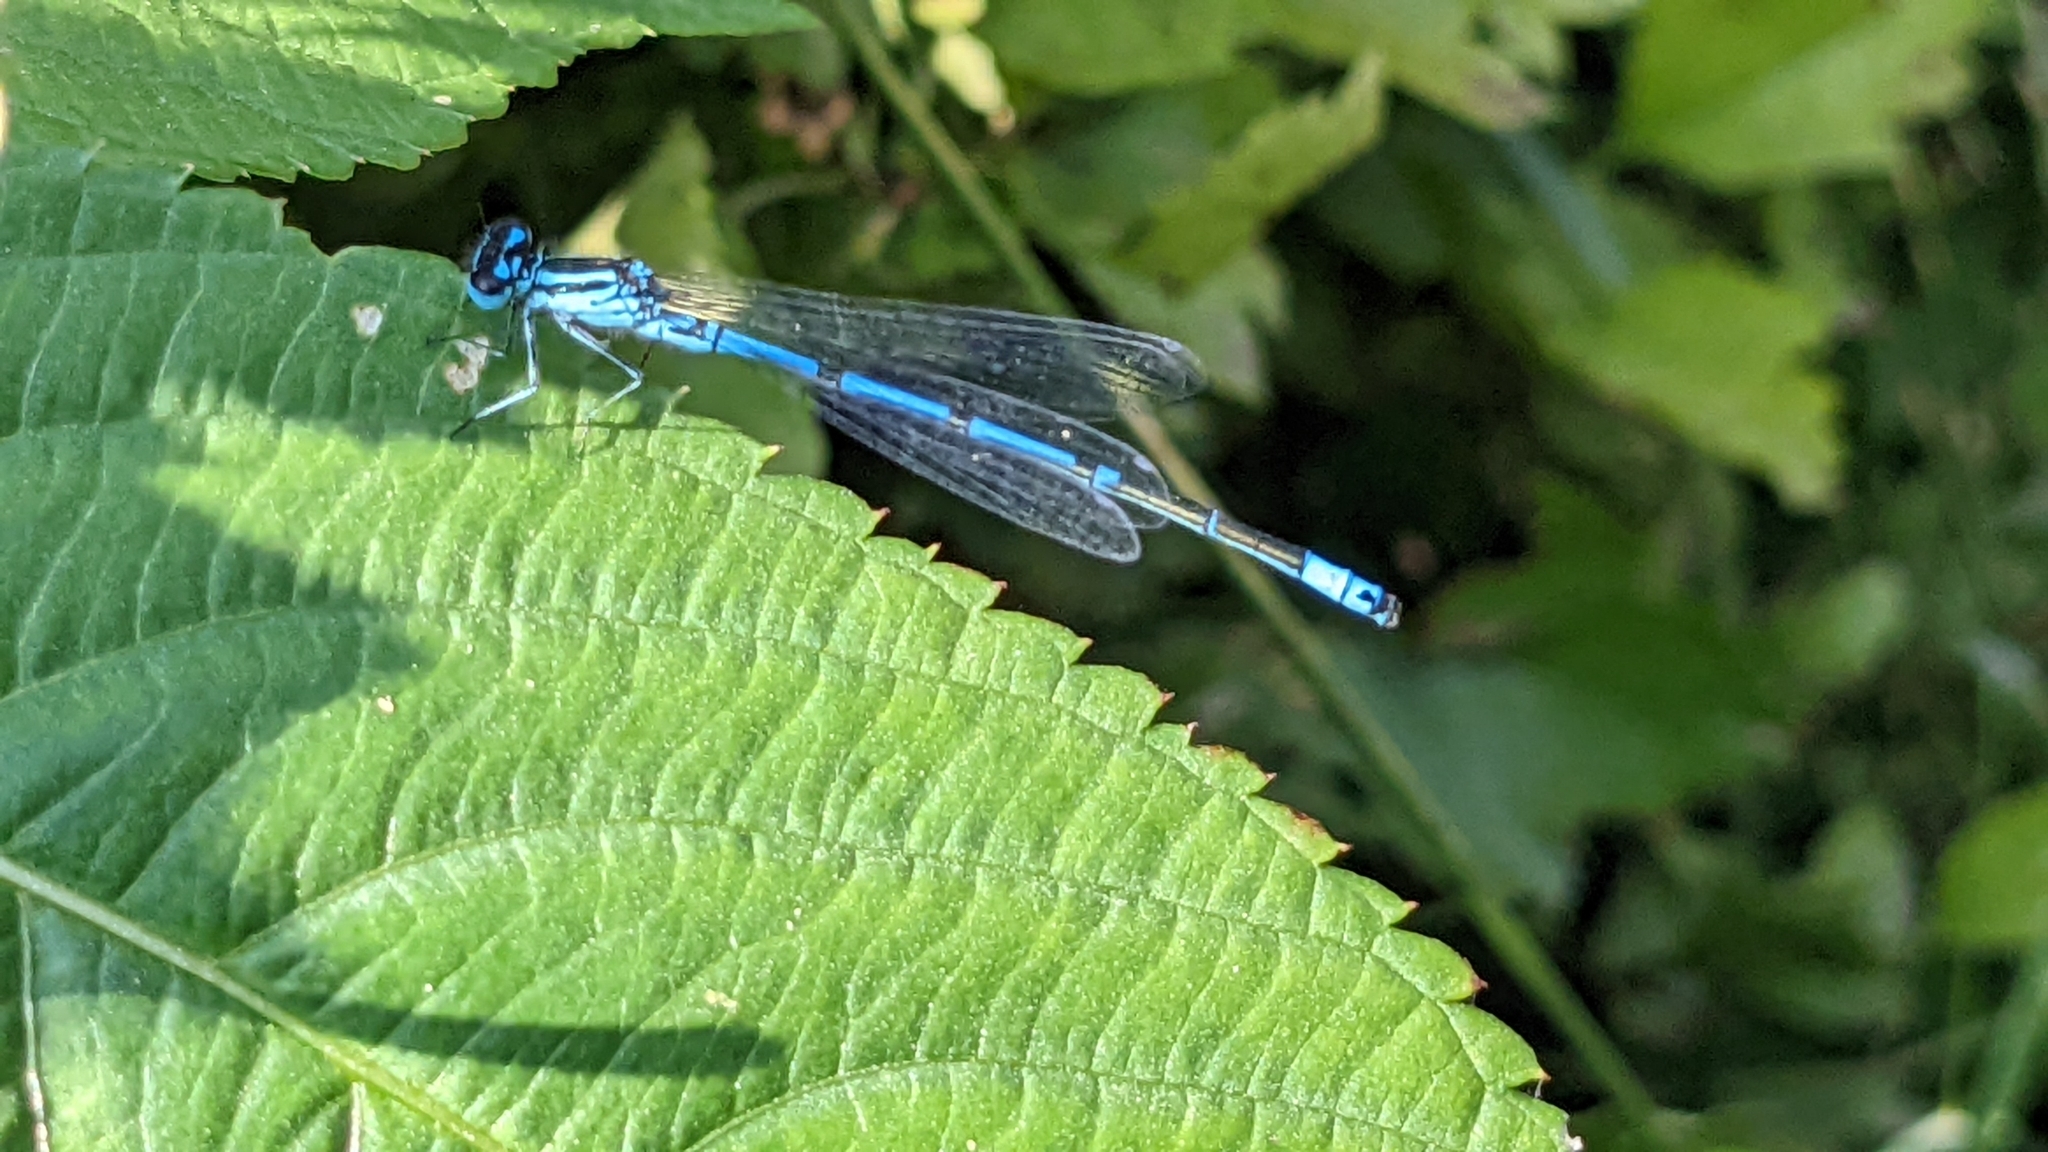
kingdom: Animalia
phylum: Arthropoda
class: Insecta
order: Odonata
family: Coenagrionidae
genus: Coenagrion
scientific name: Coenagrion puella
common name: Azure damselfly
